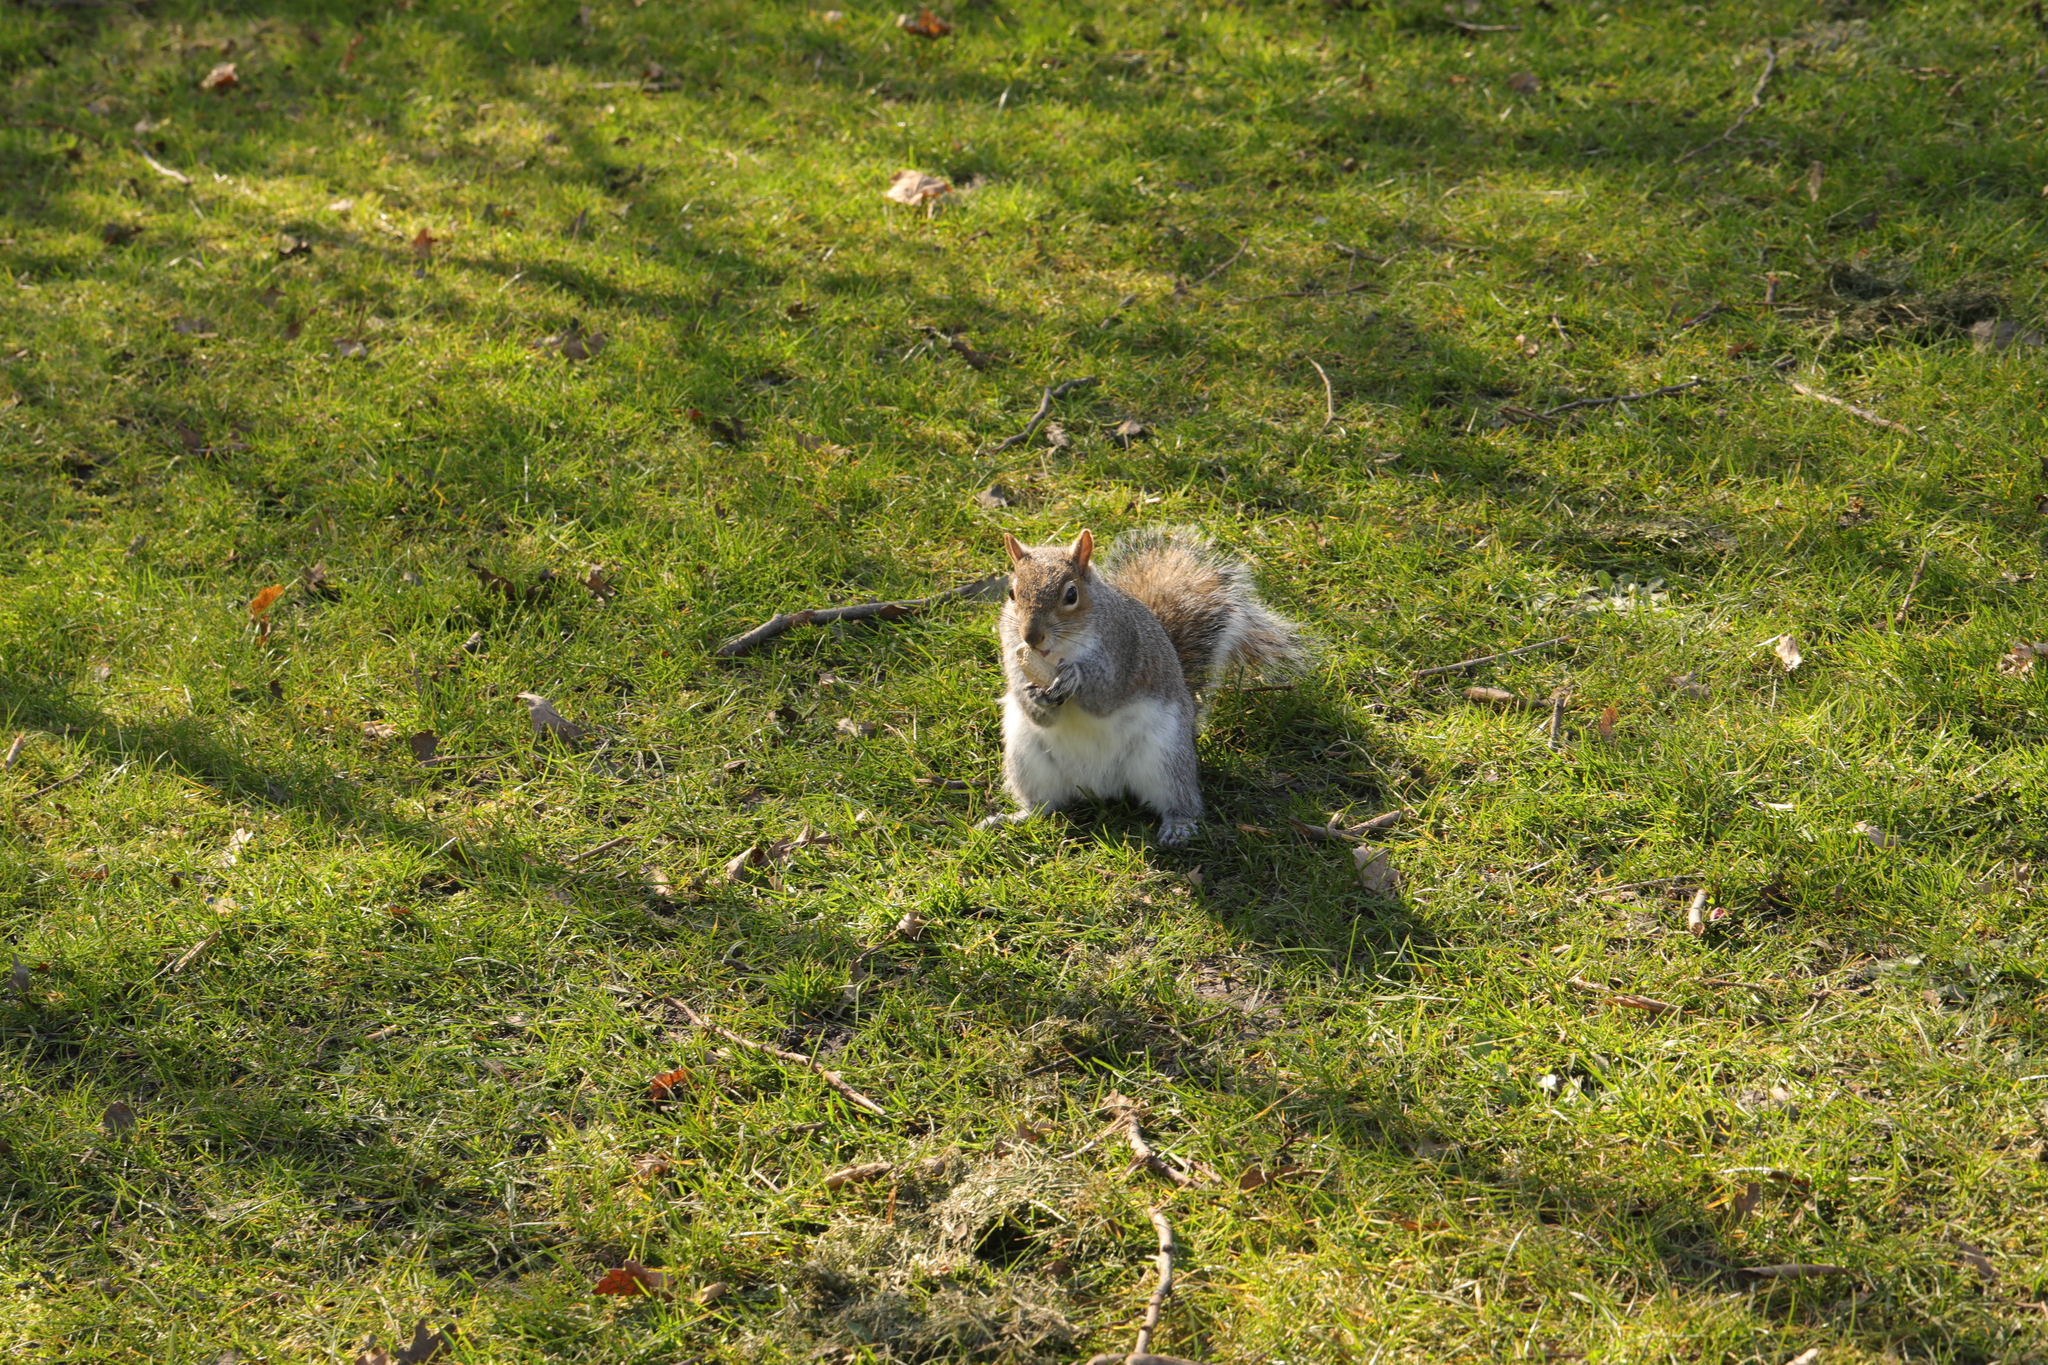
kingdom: Animalia
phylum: Chordata
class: Mammalia
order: Rodentia
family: Sciuridae
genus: Sciurus
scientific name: Sciurus carolinensis
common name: Eastern gray squirrel
